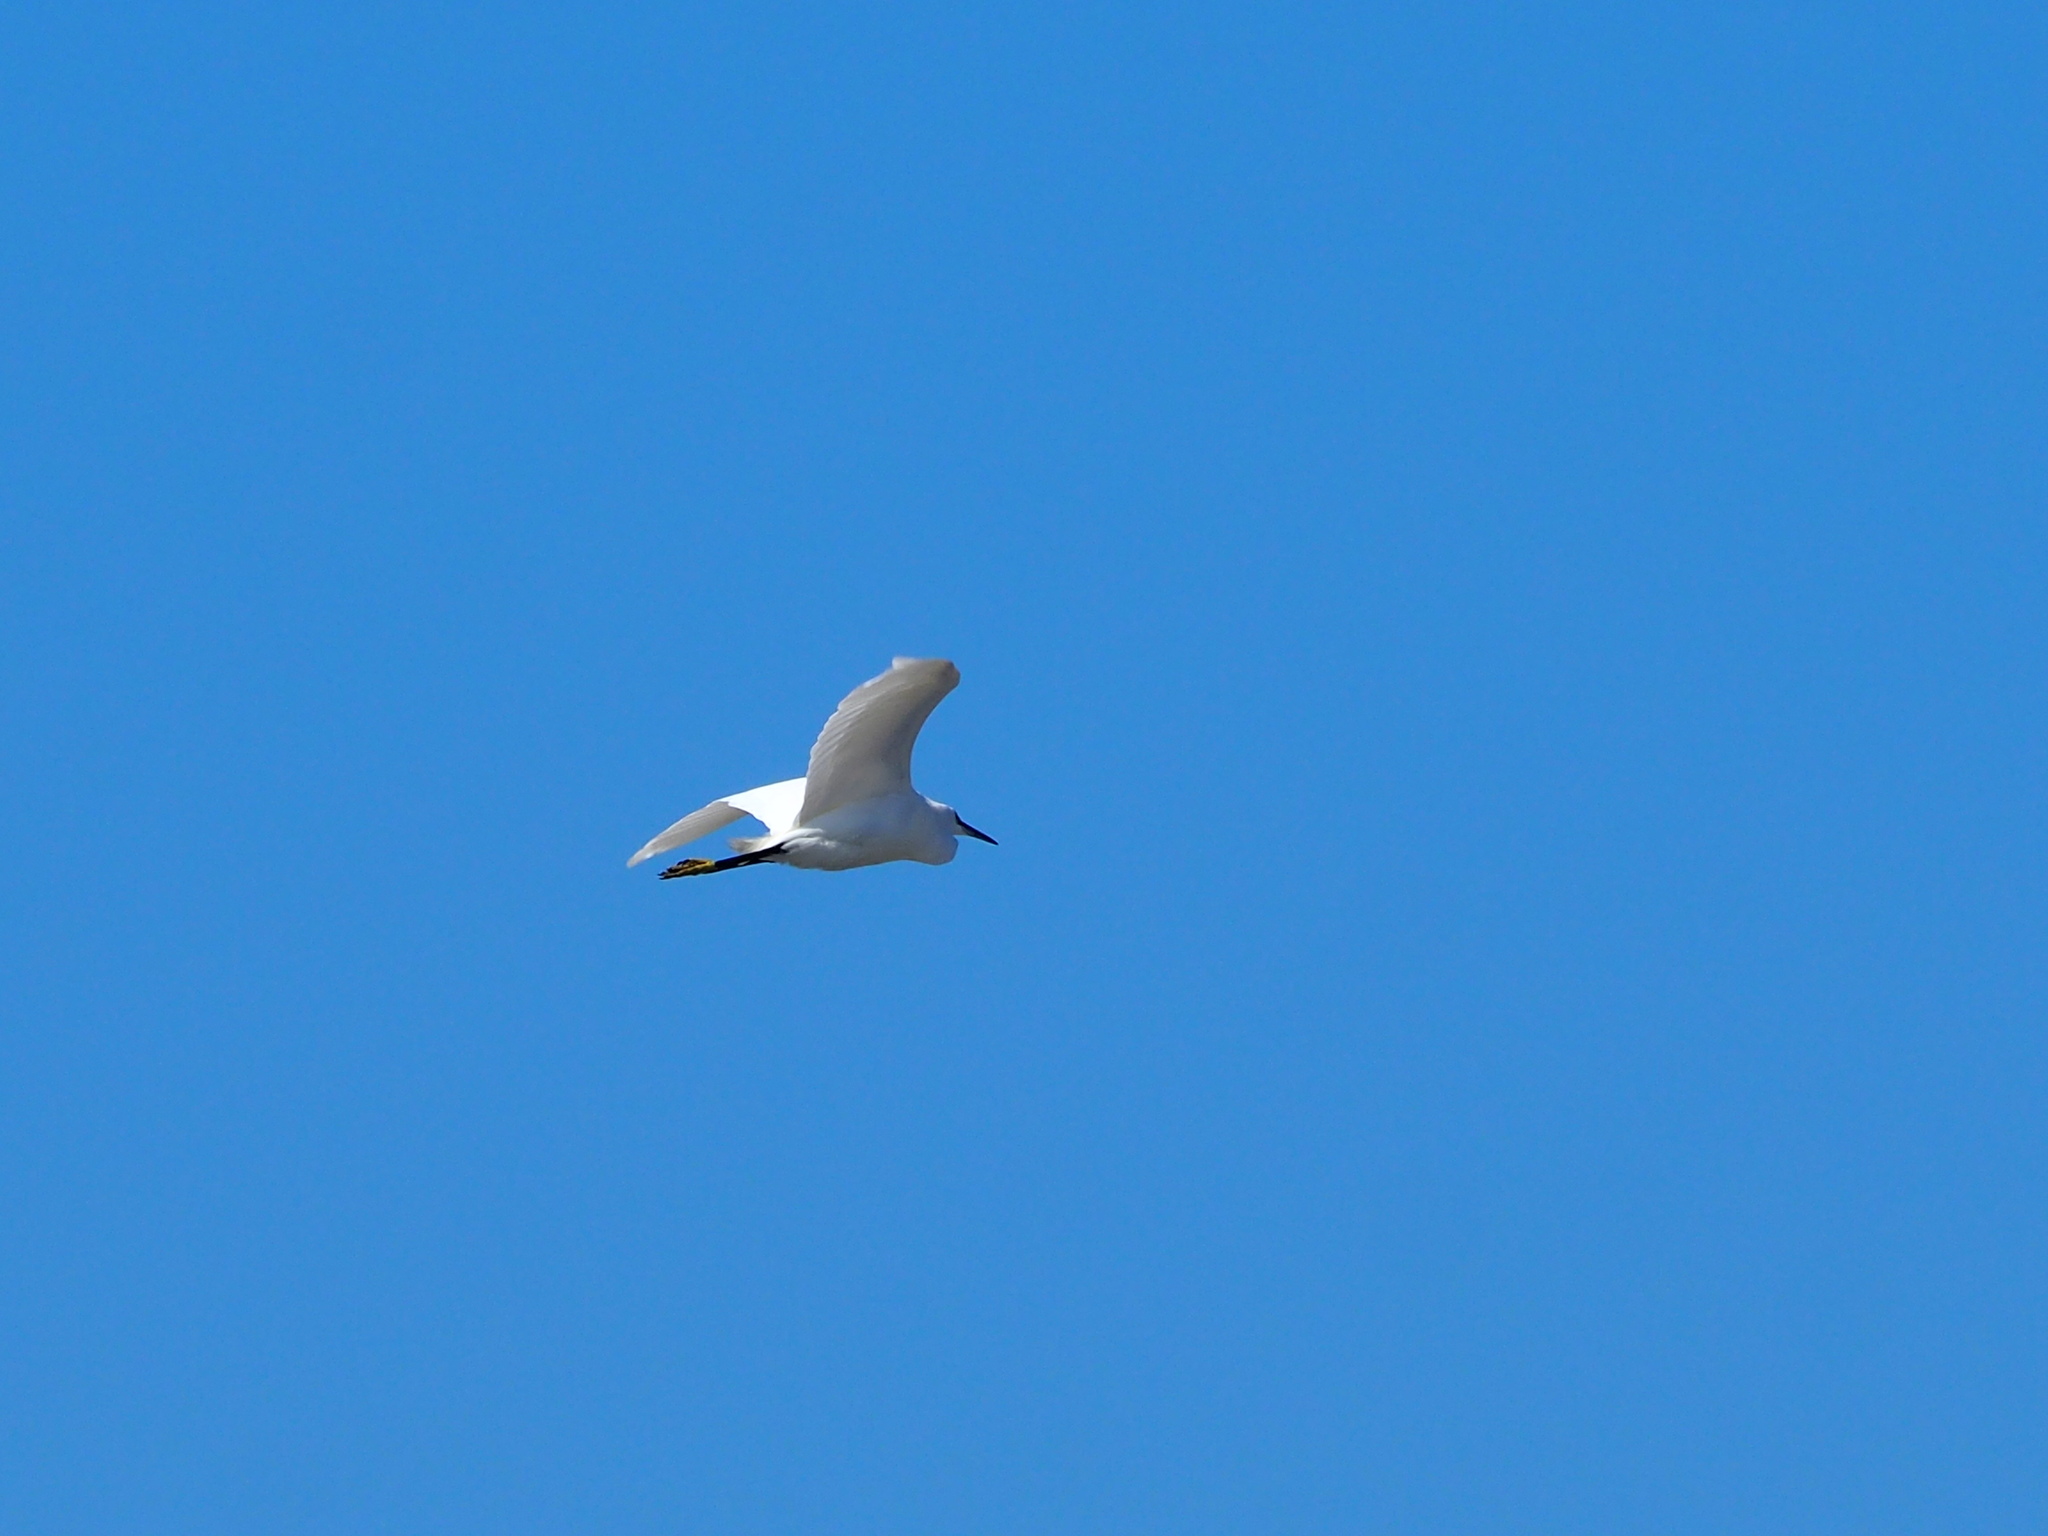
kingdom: Animalia
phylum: Chordata
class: Aves
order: Pelecaniformes
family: Ardeidae
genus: Egretta
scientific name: Egretta garzetta
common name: Little egret
